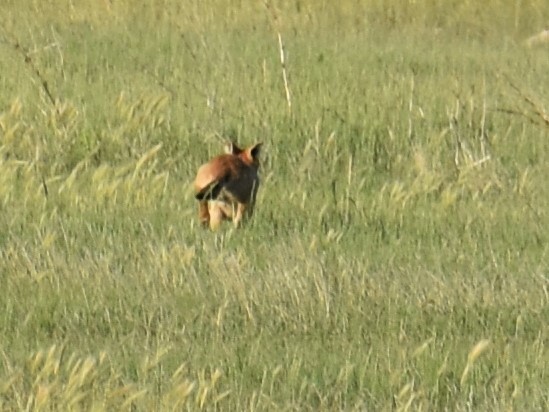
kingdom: Animalia
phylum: Chordata
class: Mammalia
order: Carnivora
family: Canidae
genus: Vulpes
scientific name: Vulpes vulpes
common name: Red fox
